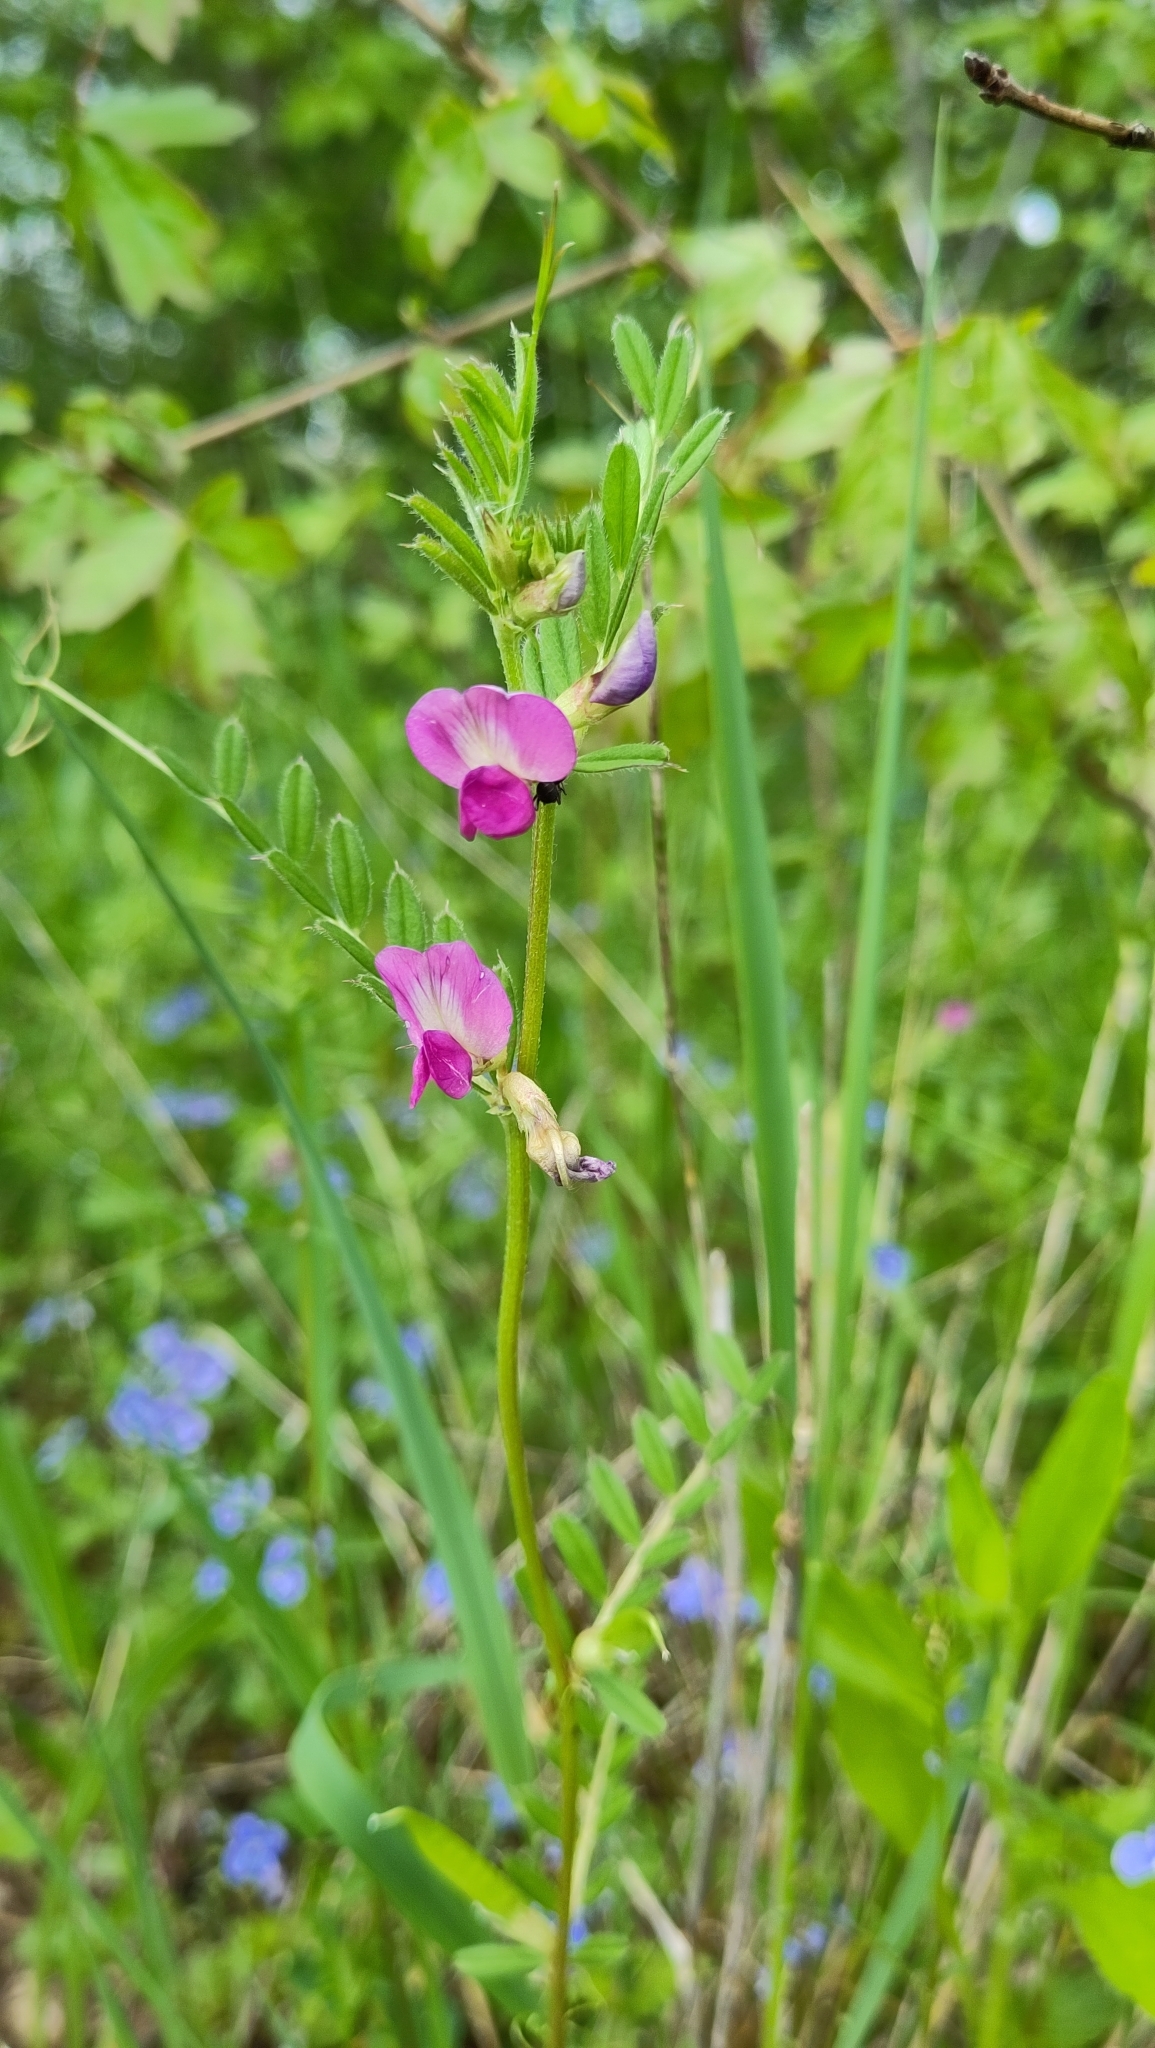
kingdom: Plantae
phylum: Tracheophyta
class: Magnoliopsida
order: Fabales
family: Fabaceae
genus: Vicia
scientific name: Vicia sativa
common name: Garden vetch
